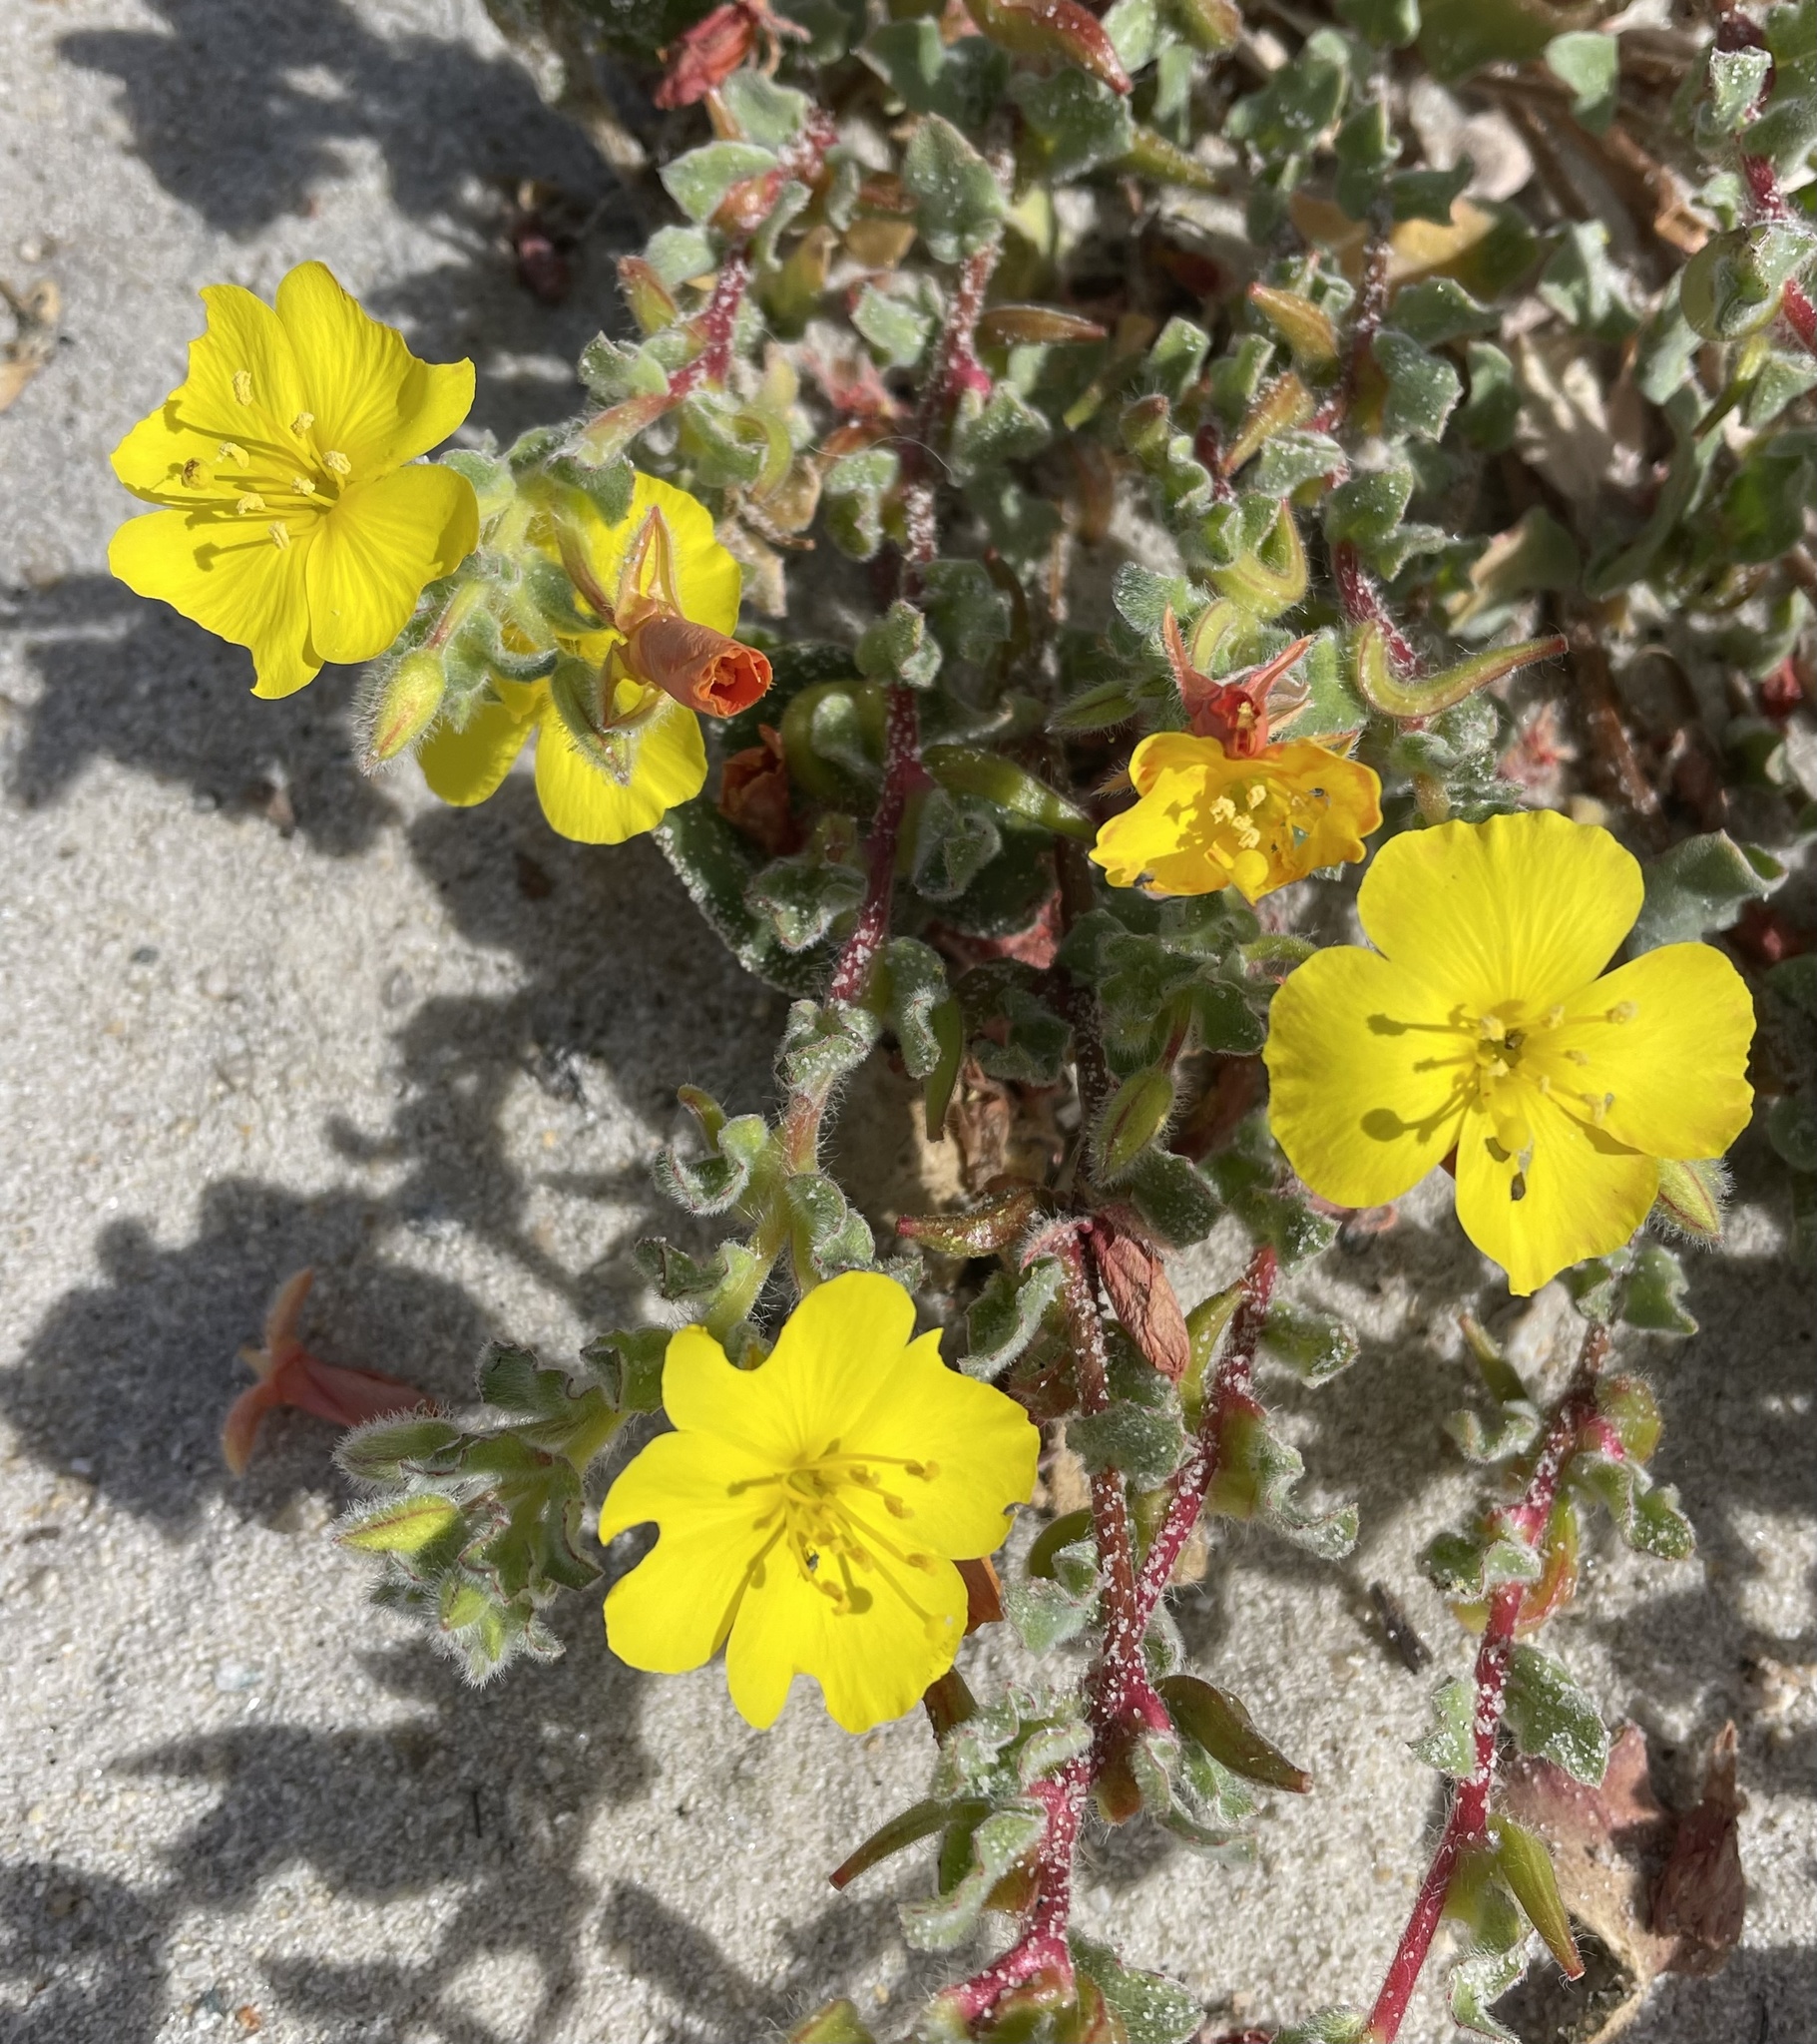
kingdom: Plantae
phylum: Tracheophyta
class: Magnoliopsida
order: Myrtales
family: Onagraceae
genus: Camissoniopsis
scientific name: Camissoniopsis cheiranthifolia
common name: Beach suncup
